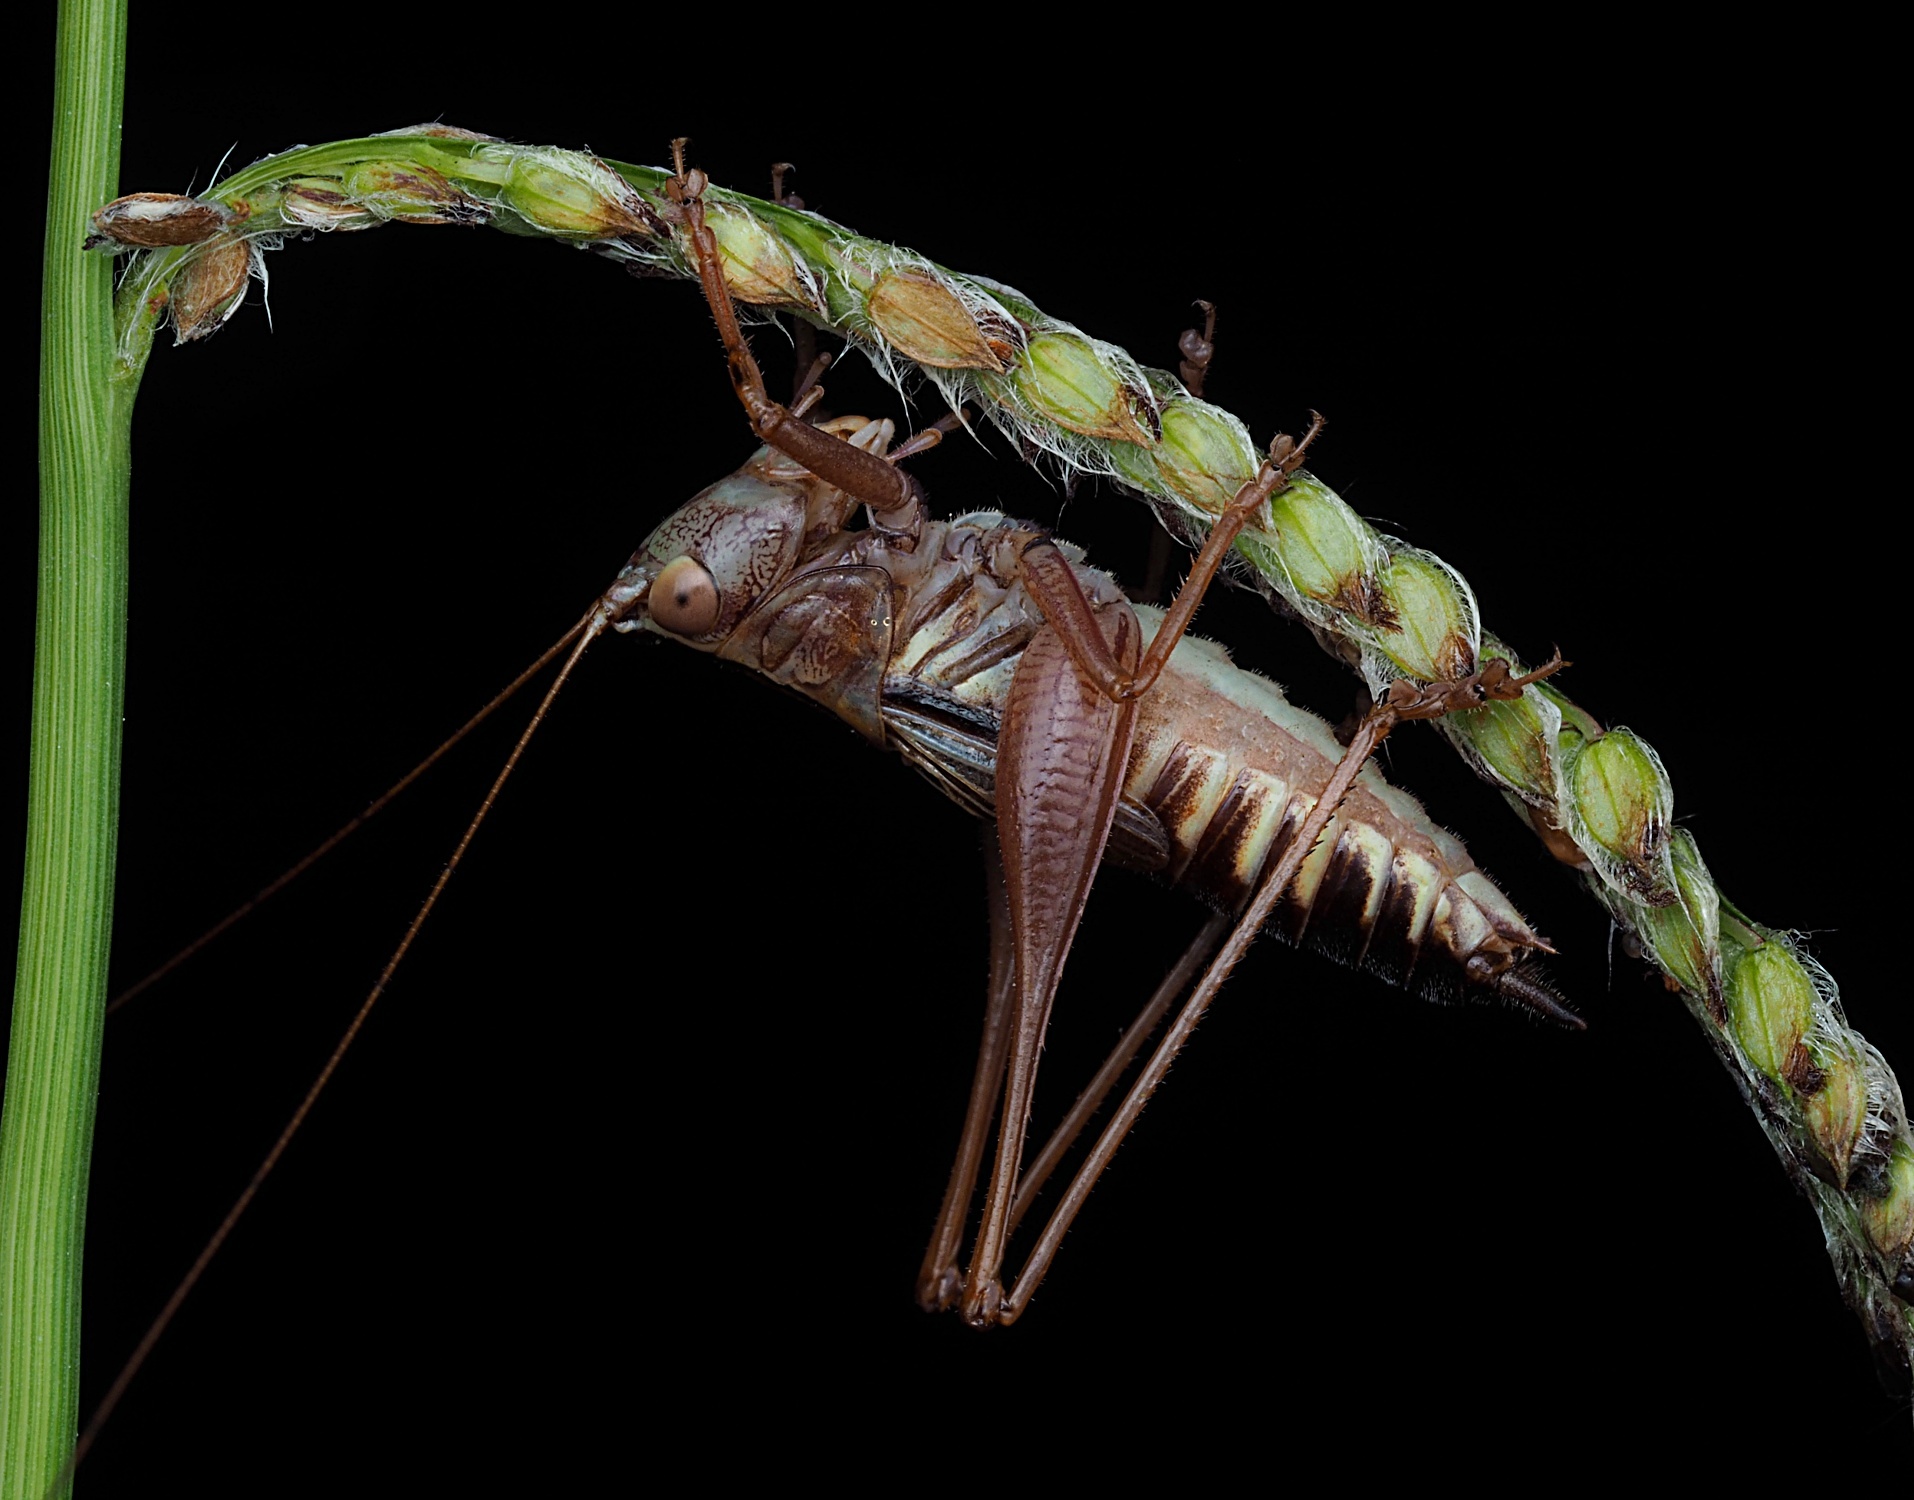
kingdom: Animalia
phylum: Arthropoda
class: Insecta
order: Orthoptera
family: Tettigoniidae
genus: Conocephalus
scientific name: Conocephalus semivittatus
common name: Blackish meadow katydid
